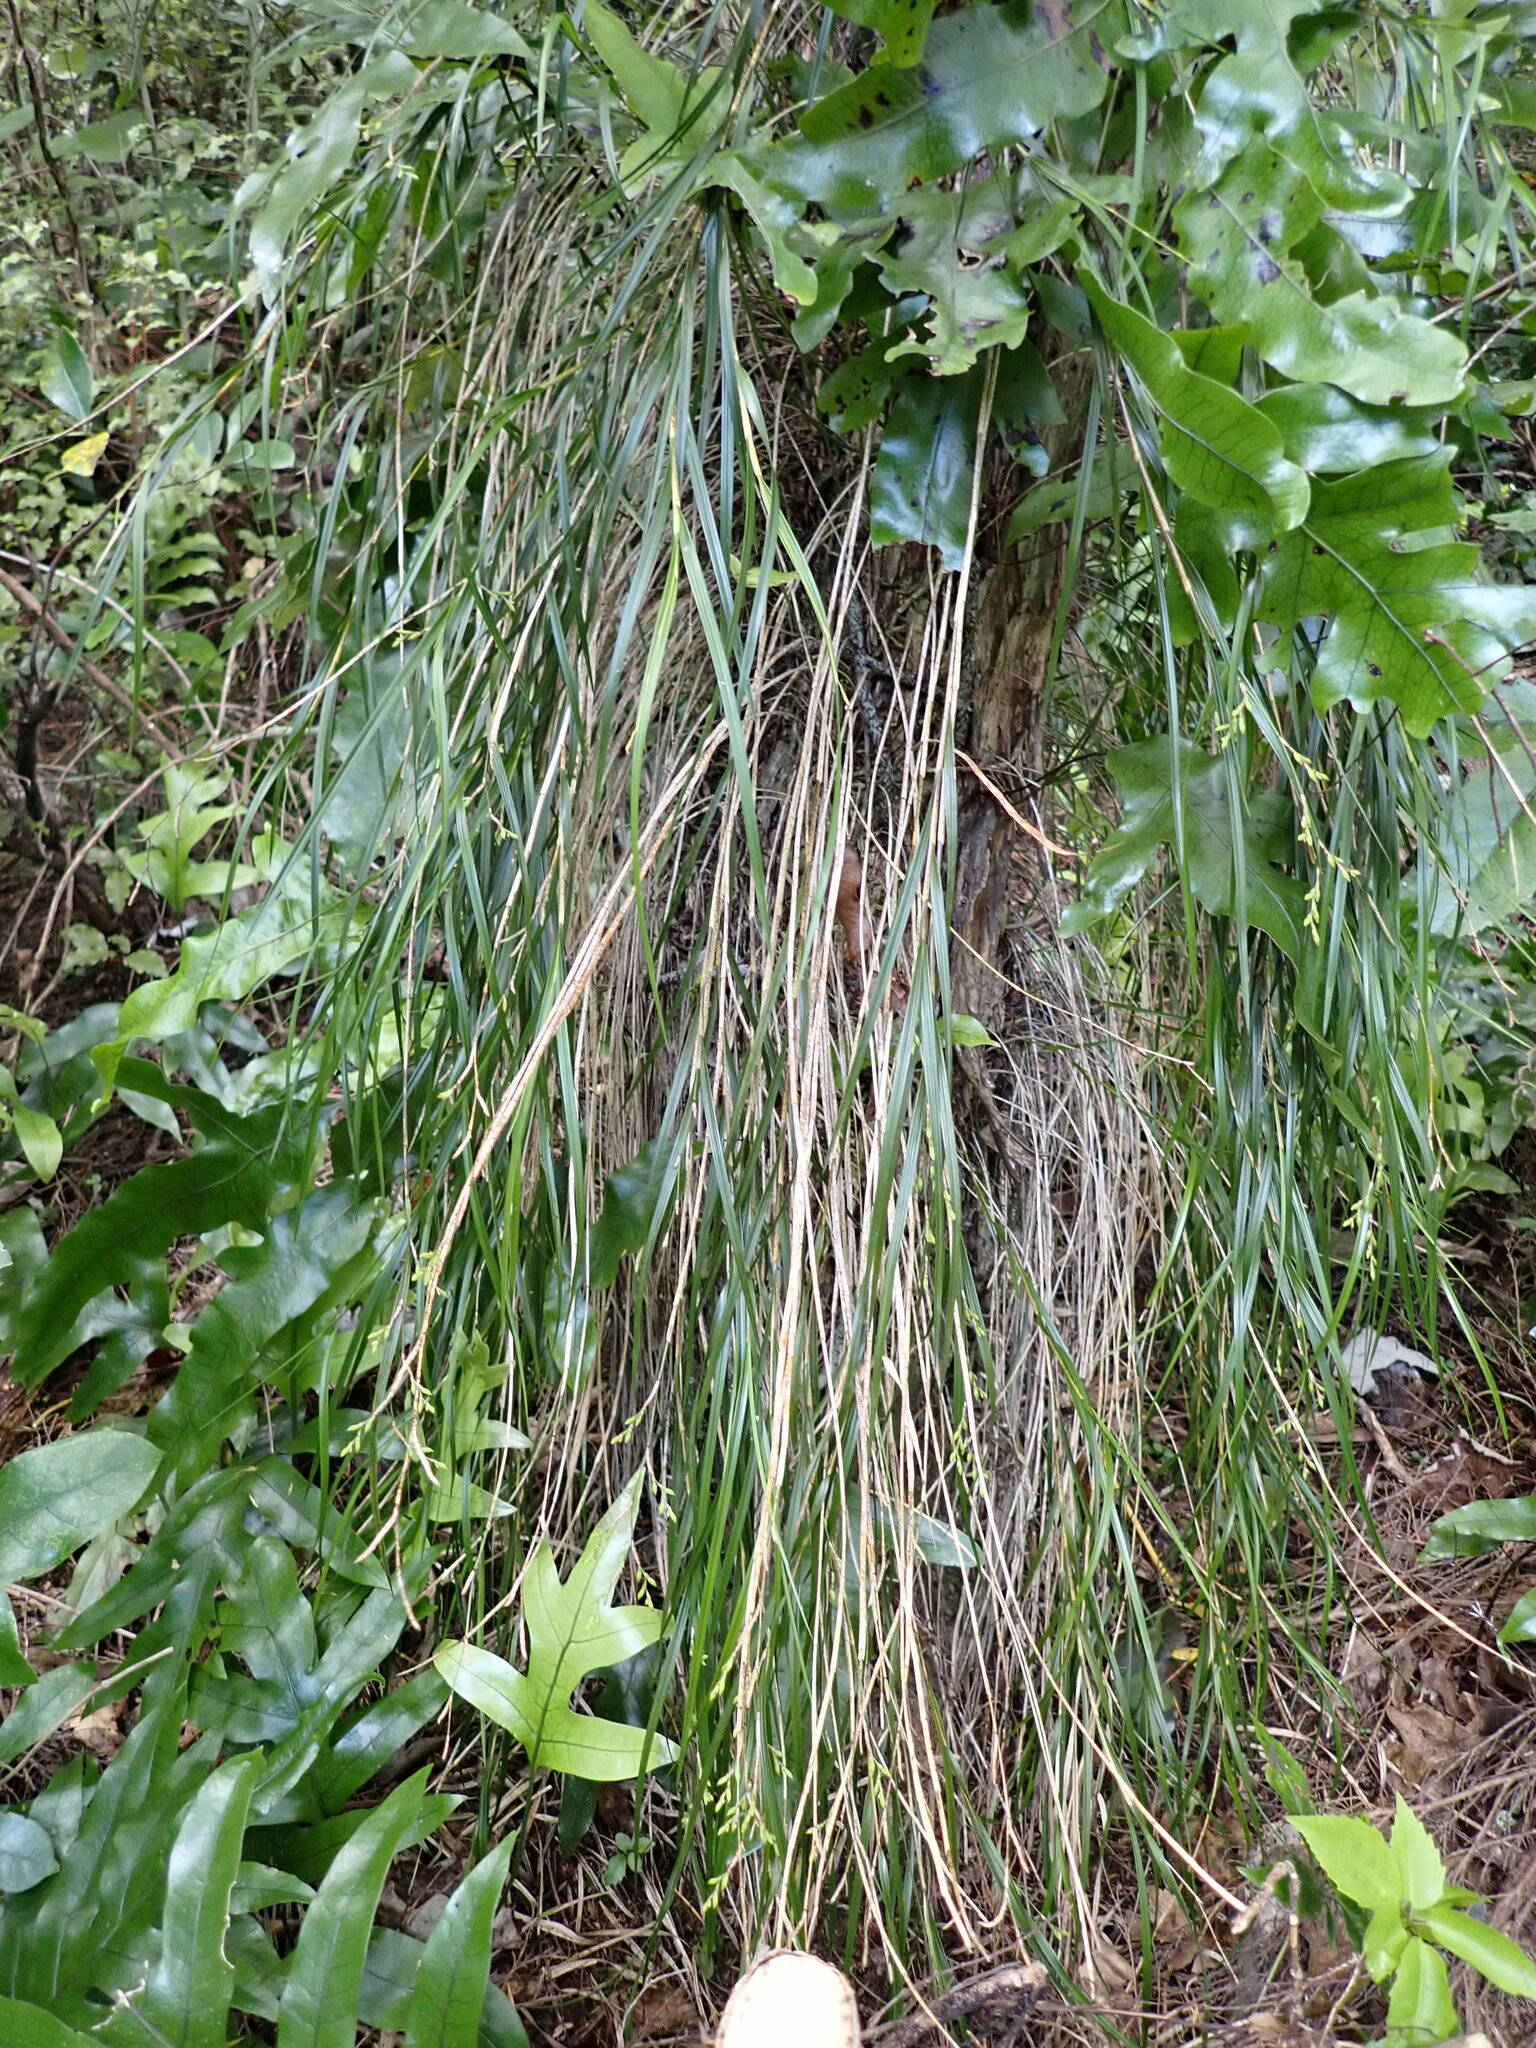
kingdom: Plantae
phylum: Tracheophyta
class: Liliopsida
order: Asparagales
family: Orchidaceae
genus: Earina
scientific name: Earina mucronata
